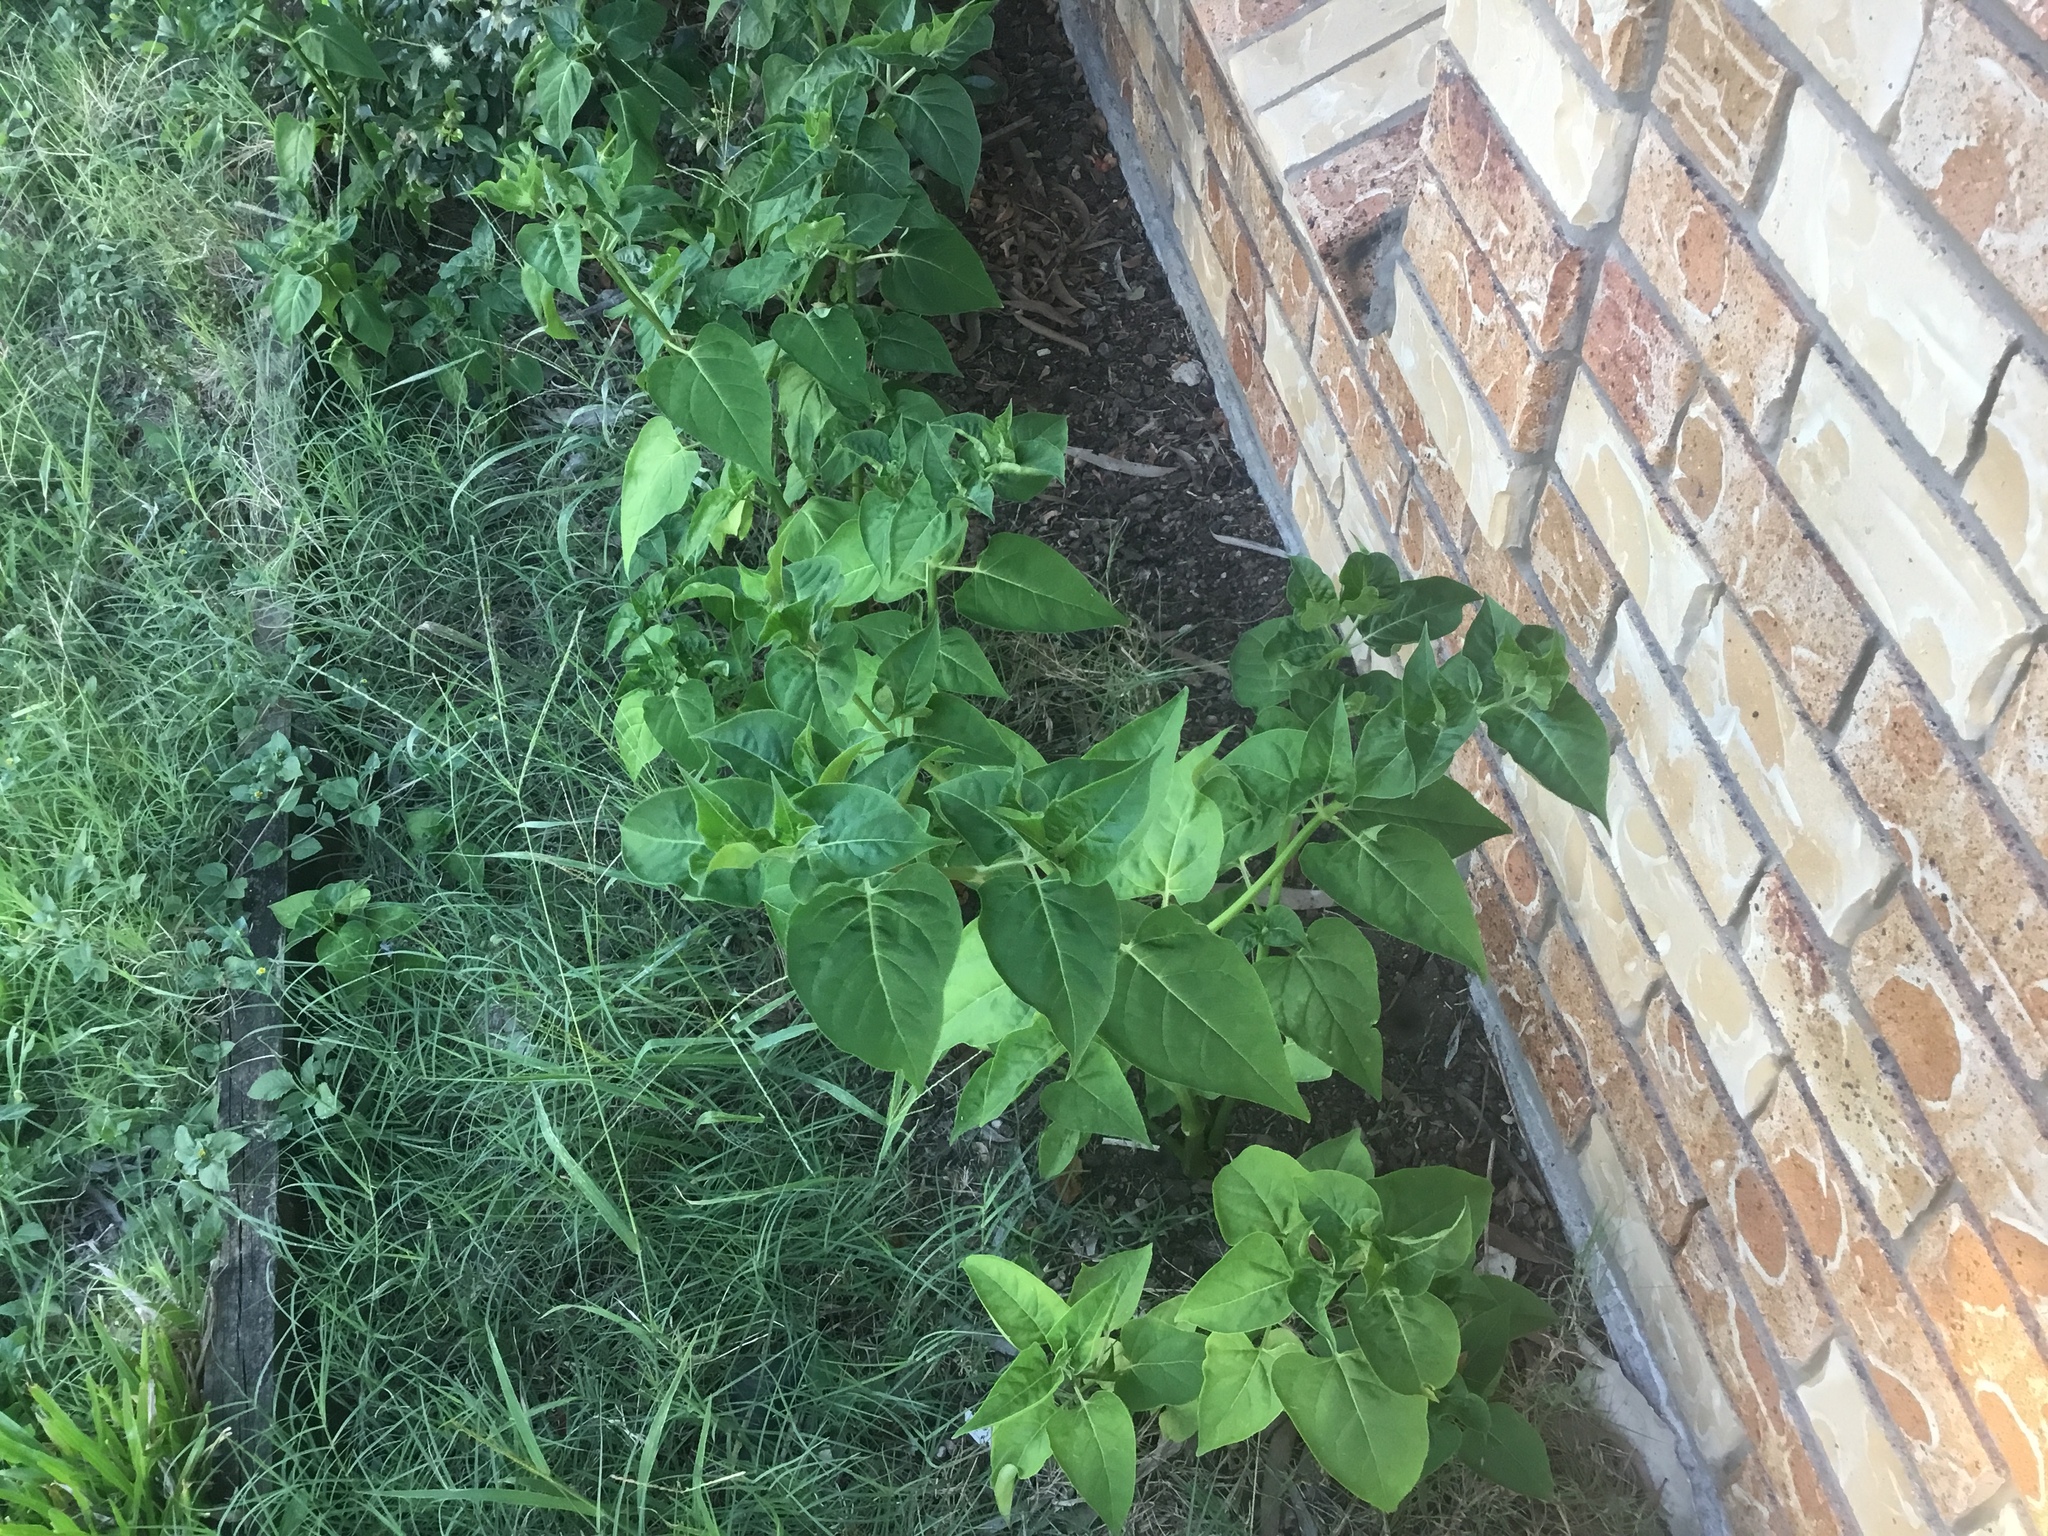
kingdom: Plantae
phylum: Tracheophyta
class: Magnoliopsida
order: Caryophyllales
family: Nyctaginaceae
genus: Mirabilis
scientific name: Mirabilis jalapa
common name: Marvel-of-peru
